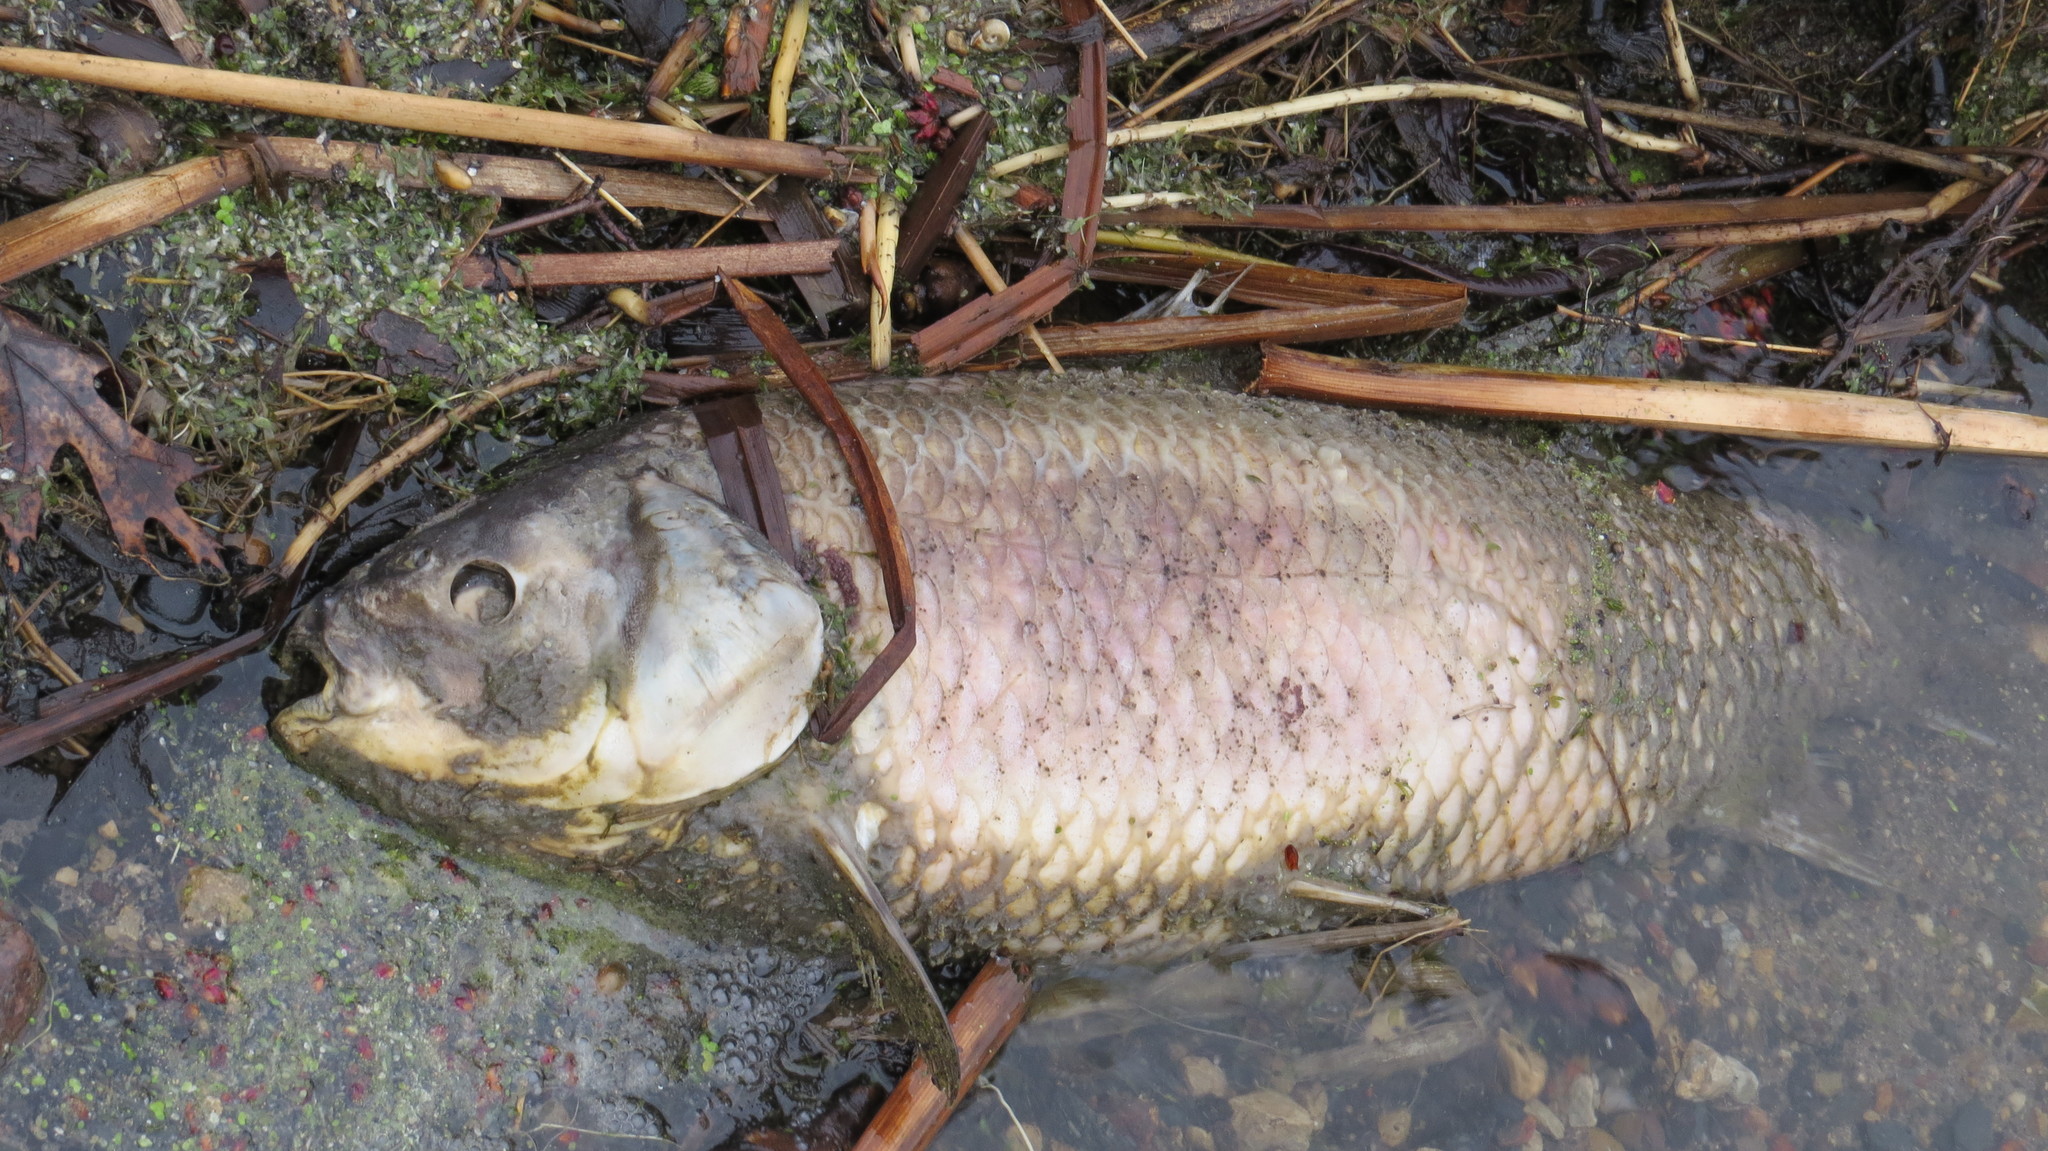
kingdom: Animalia
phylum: Chordata
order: Cypriniformes
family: Catostomidae
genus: Ictiobus
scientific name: Ictiobus cyprinellus
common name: Bigmouth buffalo
